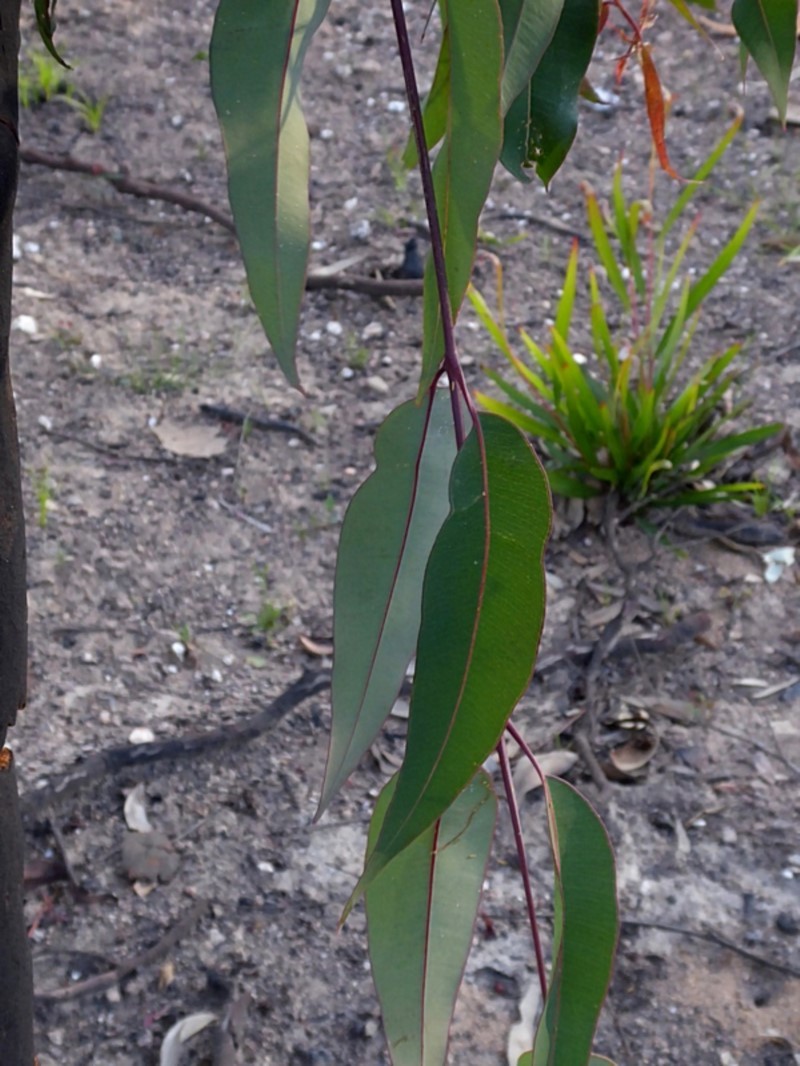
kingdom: Plantae
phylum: Tracheophyta
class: Magnoliopsida
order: Myrtales
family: Myrtaceae
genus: Angophora
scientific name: Angophora costata
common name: Gum myrtle
